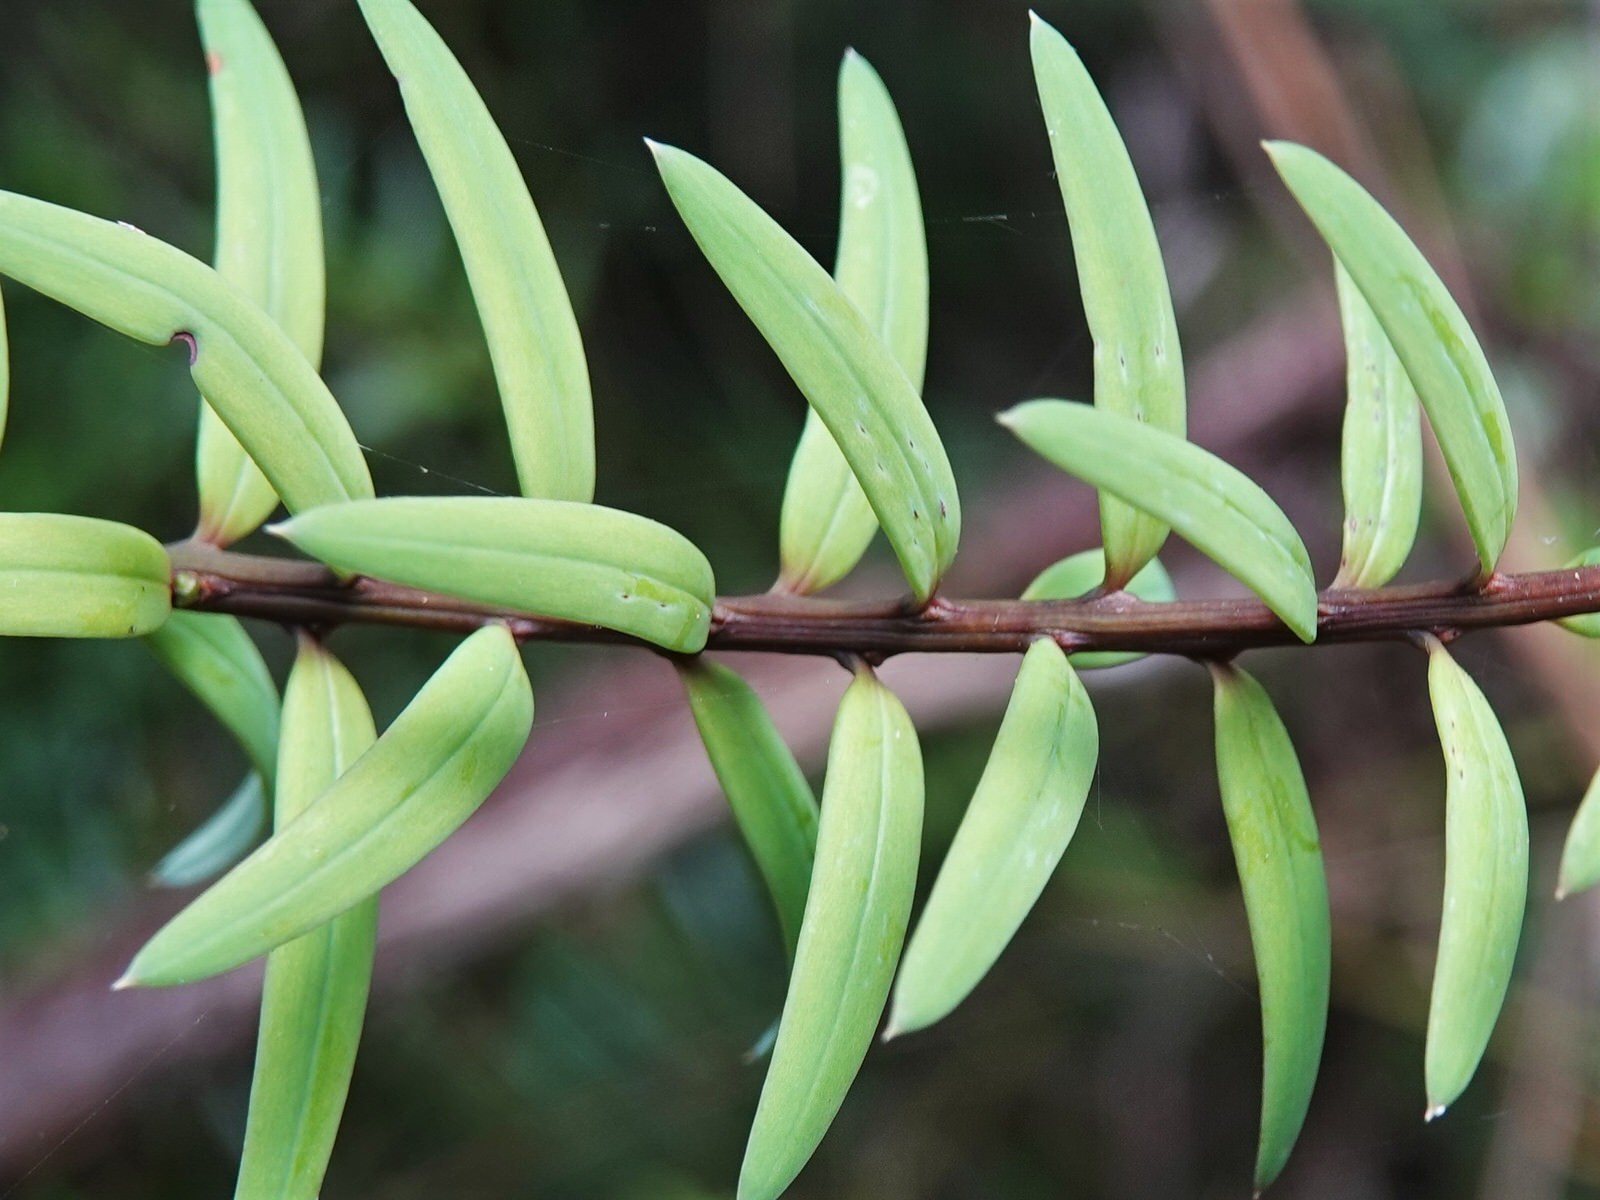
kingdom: Plantae
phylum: Tracheophyta
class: Pinopsida
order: Pinales
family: Podocarpaceae
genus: Podocarpus
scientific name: Podocarpus laetus
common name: Hall's totara
